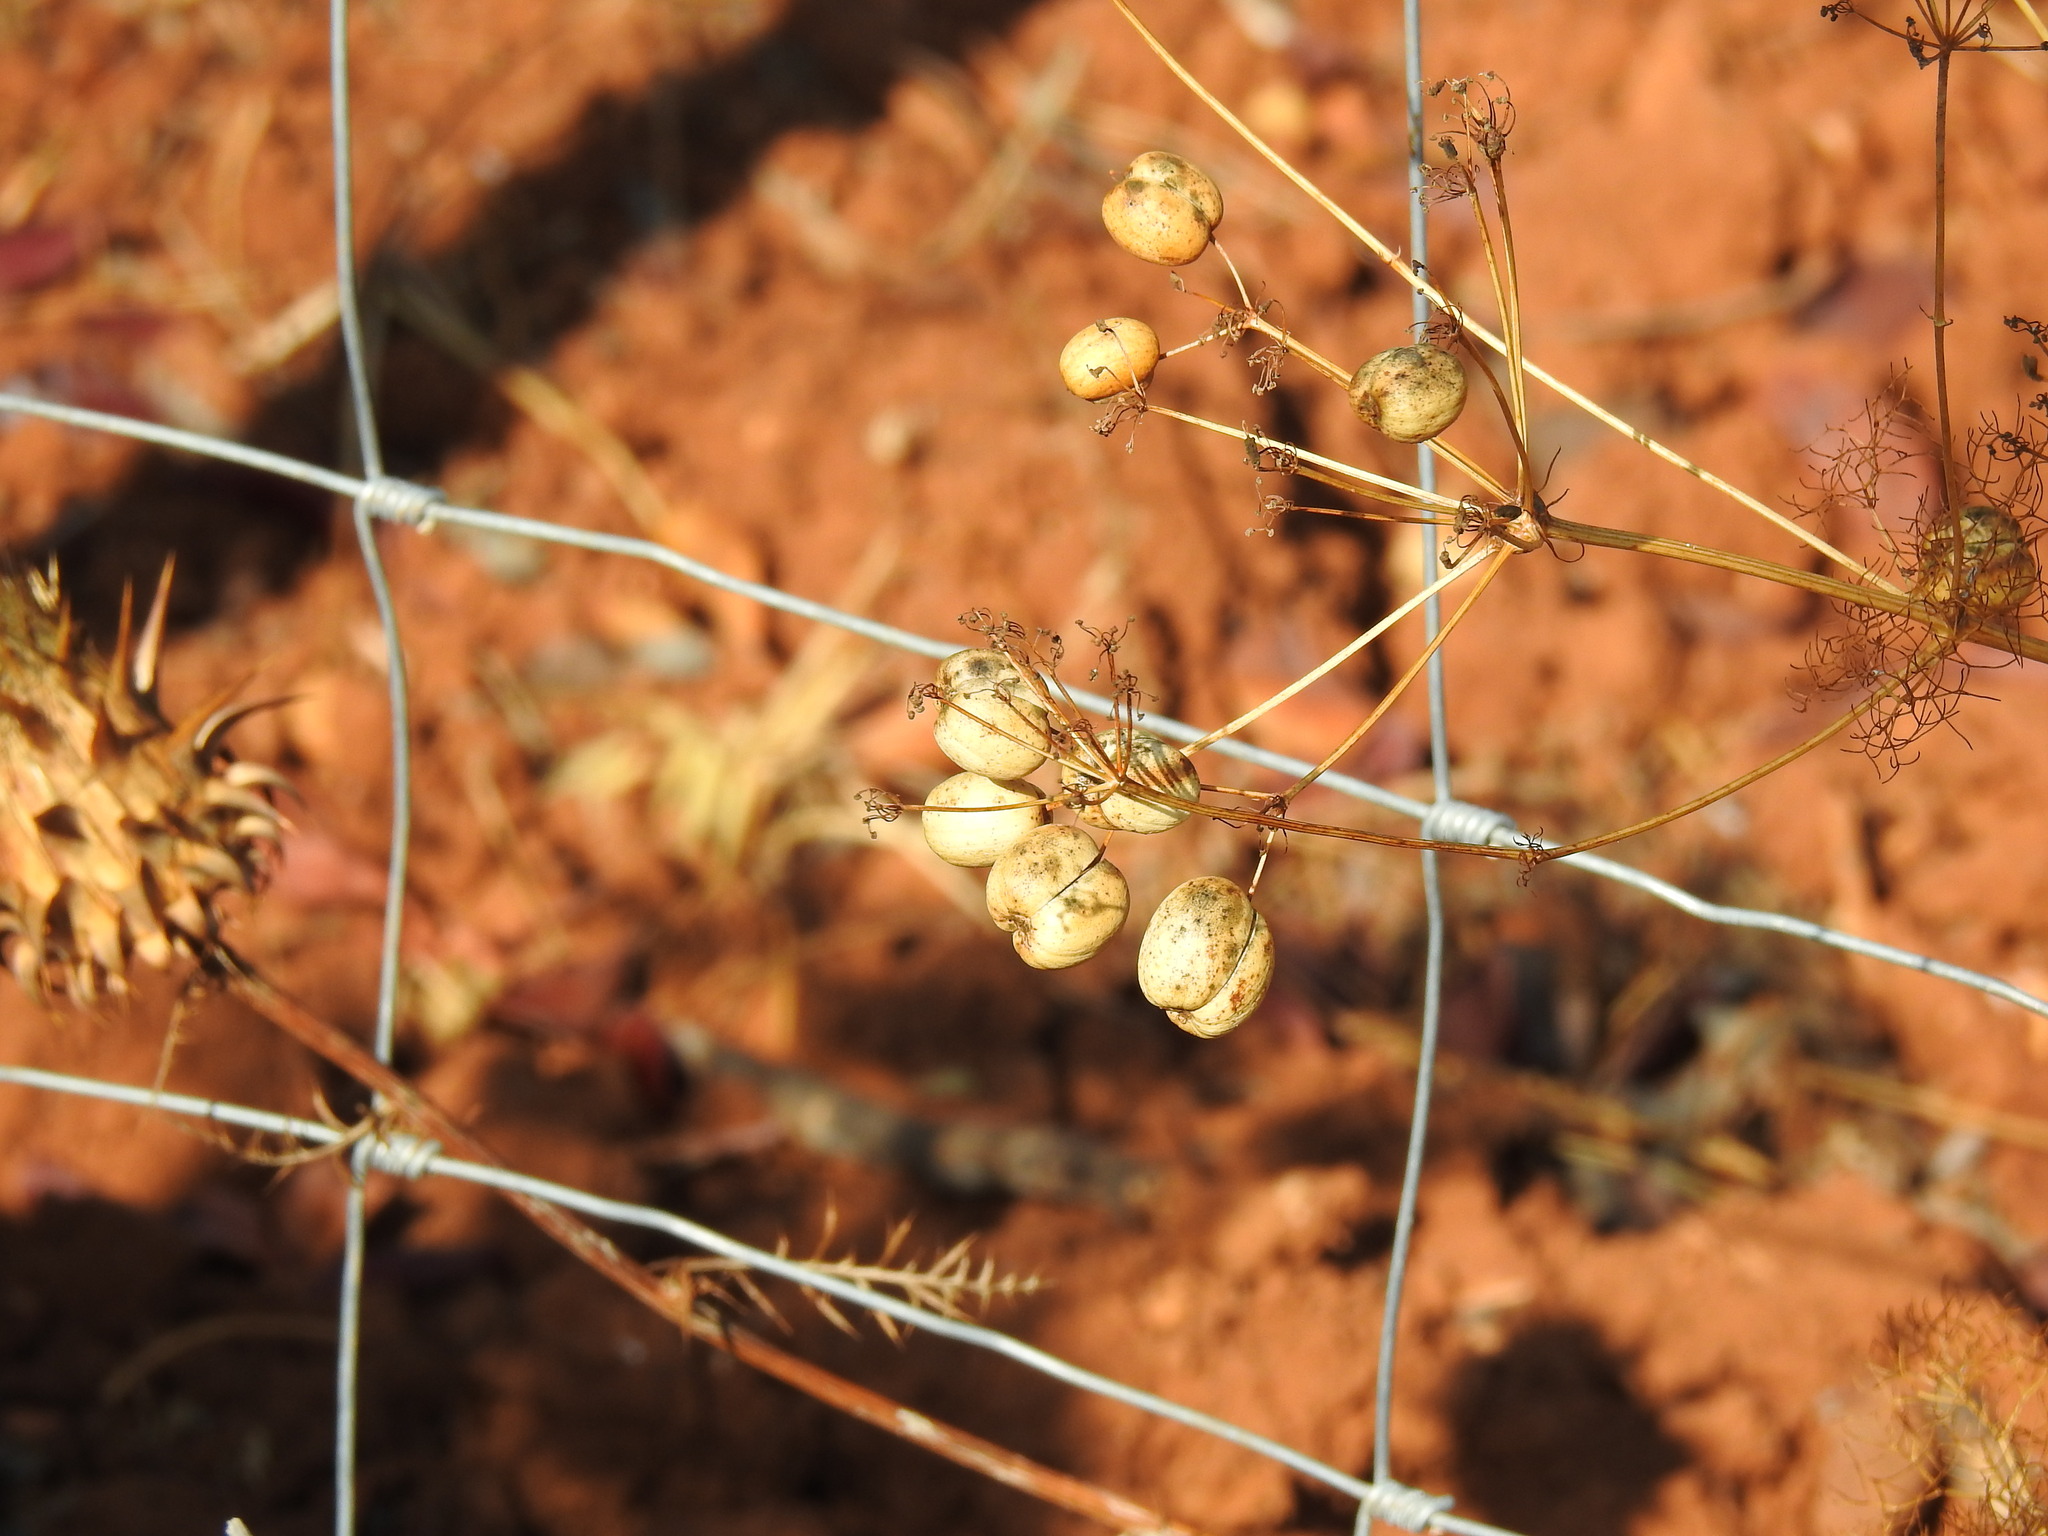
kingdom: Plantae
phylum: Tracheophyta
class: Magnoliopsida
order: Apiales
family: Apiaceae
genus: Prangos
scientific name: Prangos trifida
